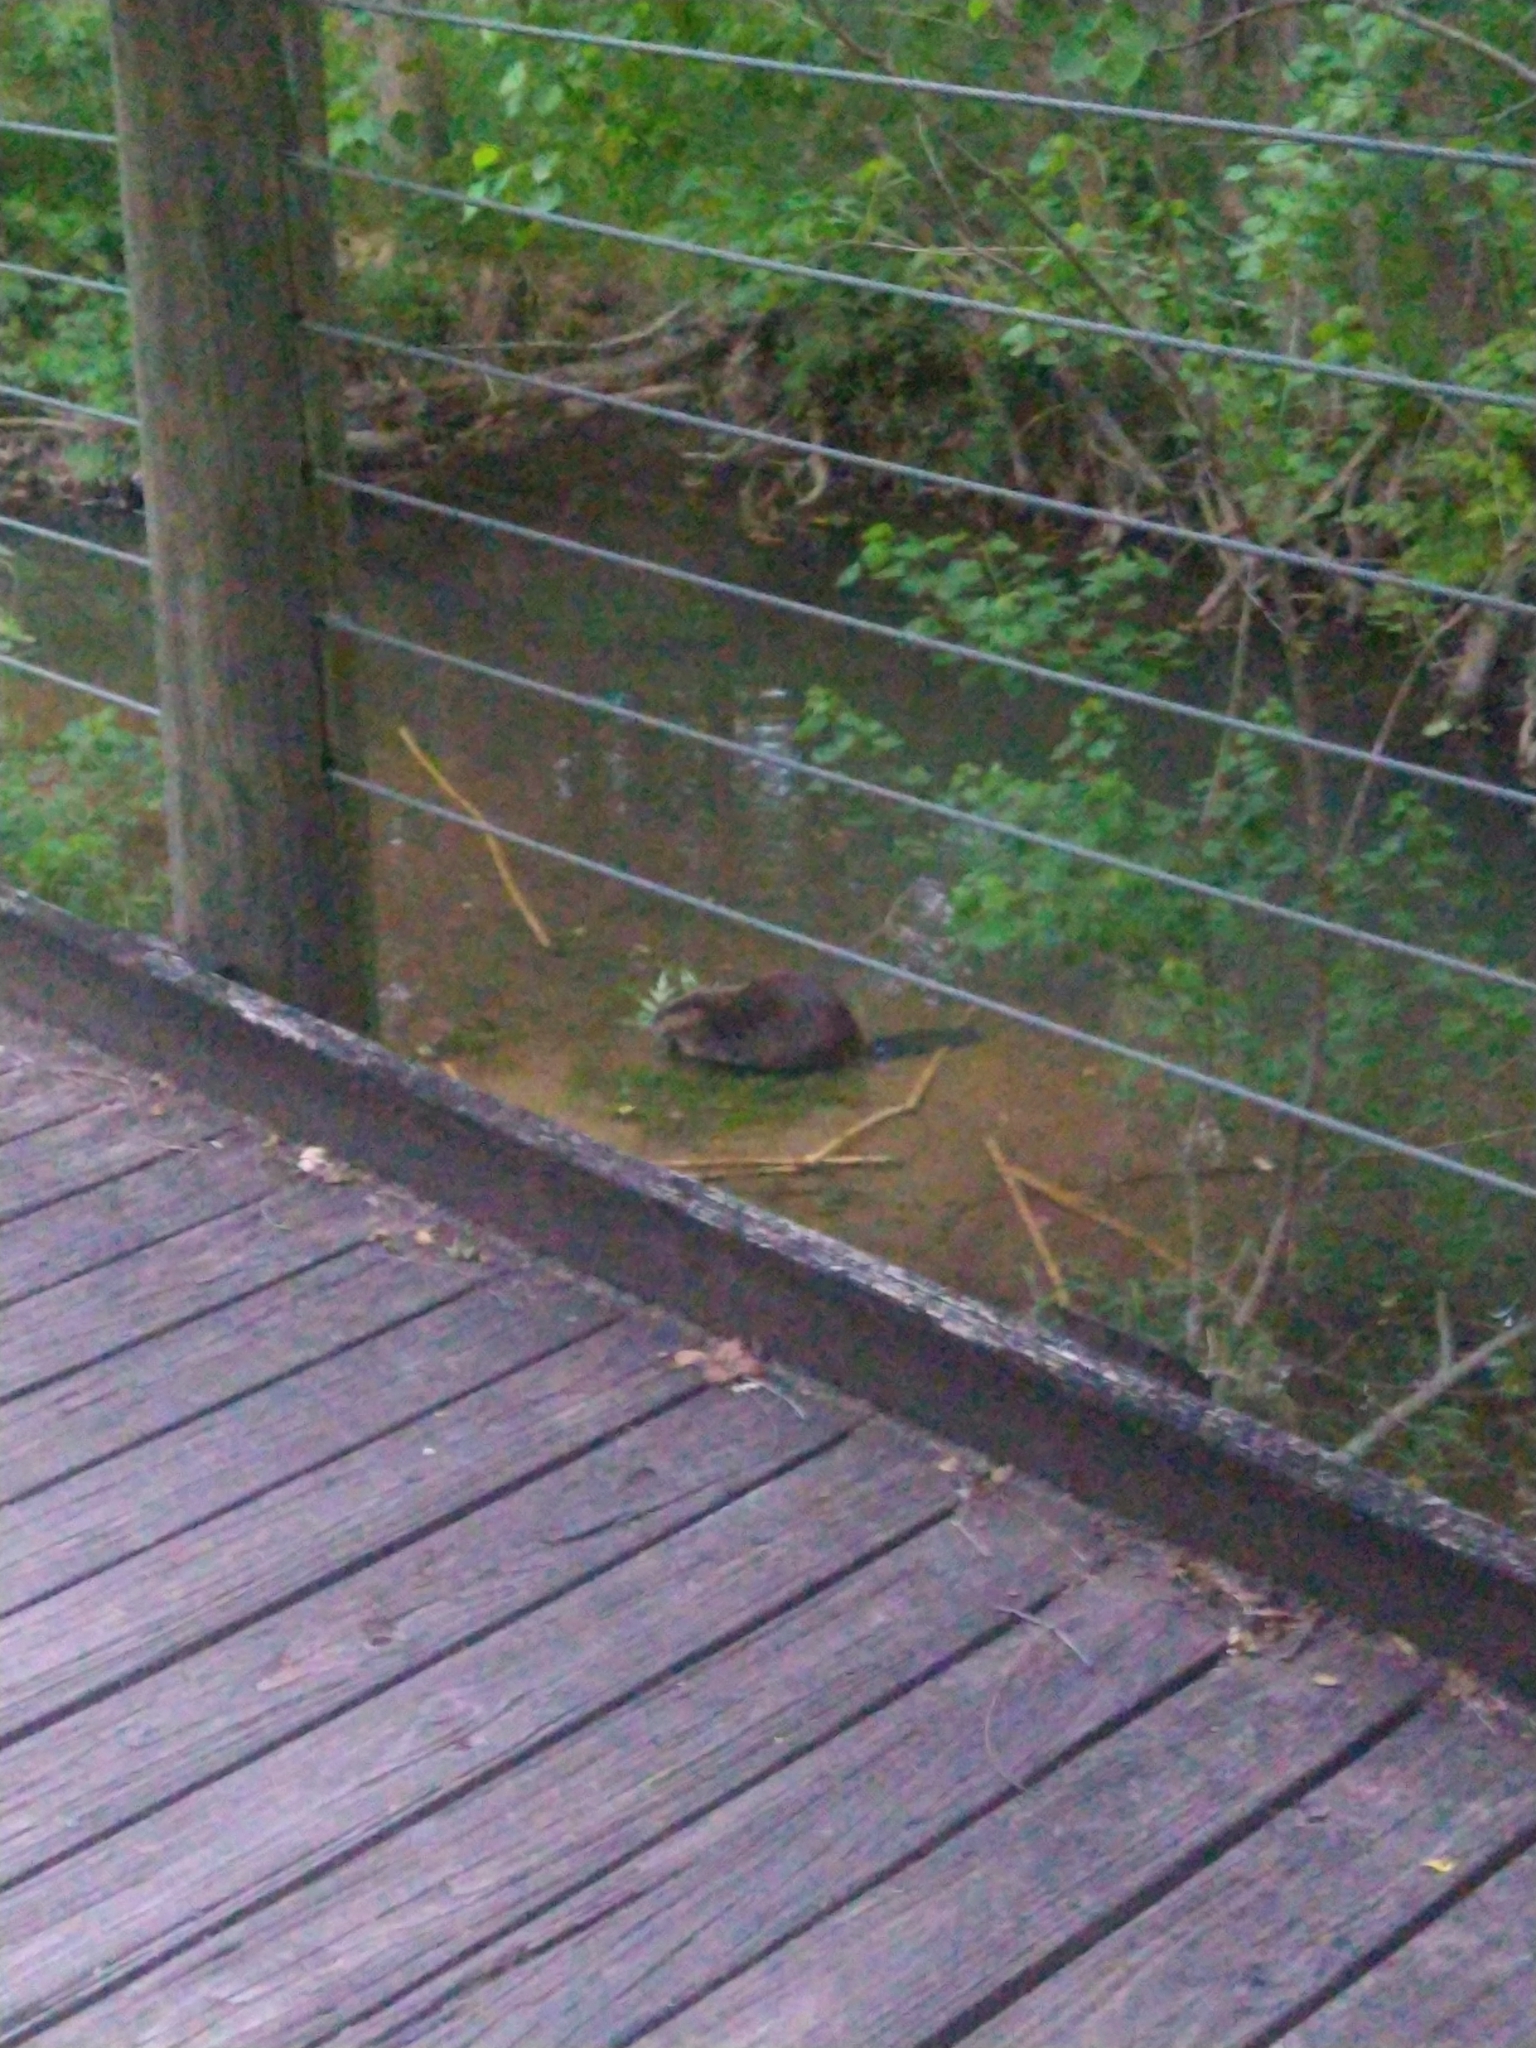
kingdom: Animalia
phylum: Chordata
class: Mammalia
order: Rodentia
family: Castoridae
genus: Castor
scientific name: Castor canadensis
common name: American beaver
